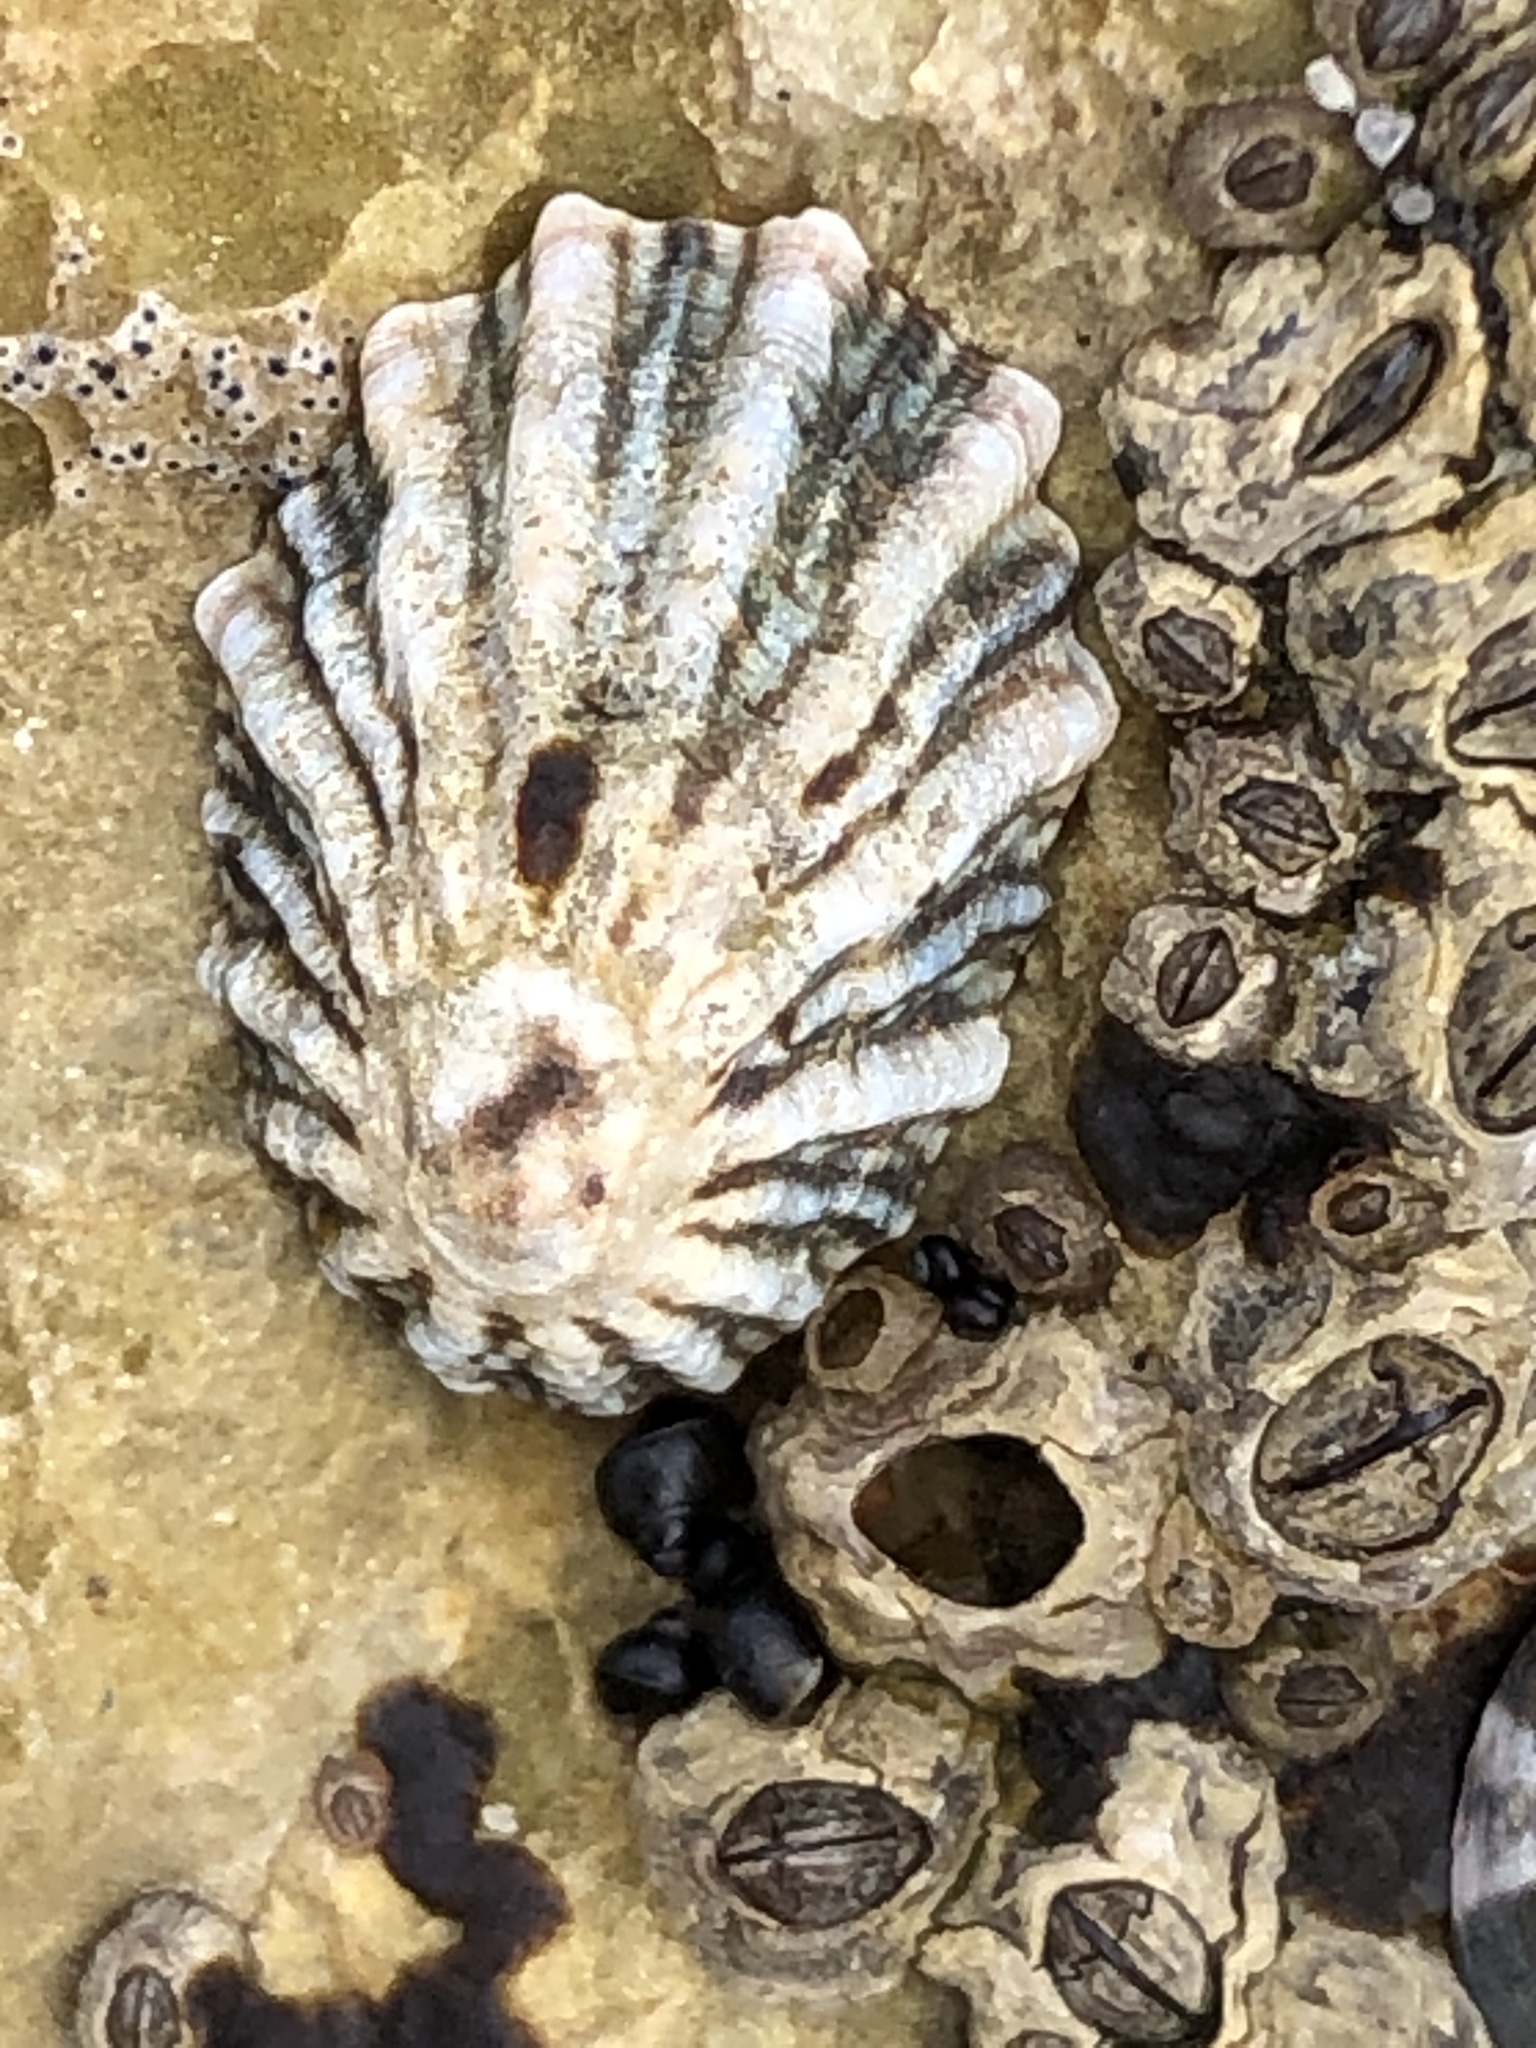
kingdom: Animalia
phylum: Mollusca
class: Gastropoda
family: Lottiidae
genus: Lottia
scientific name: Lottia scabra
